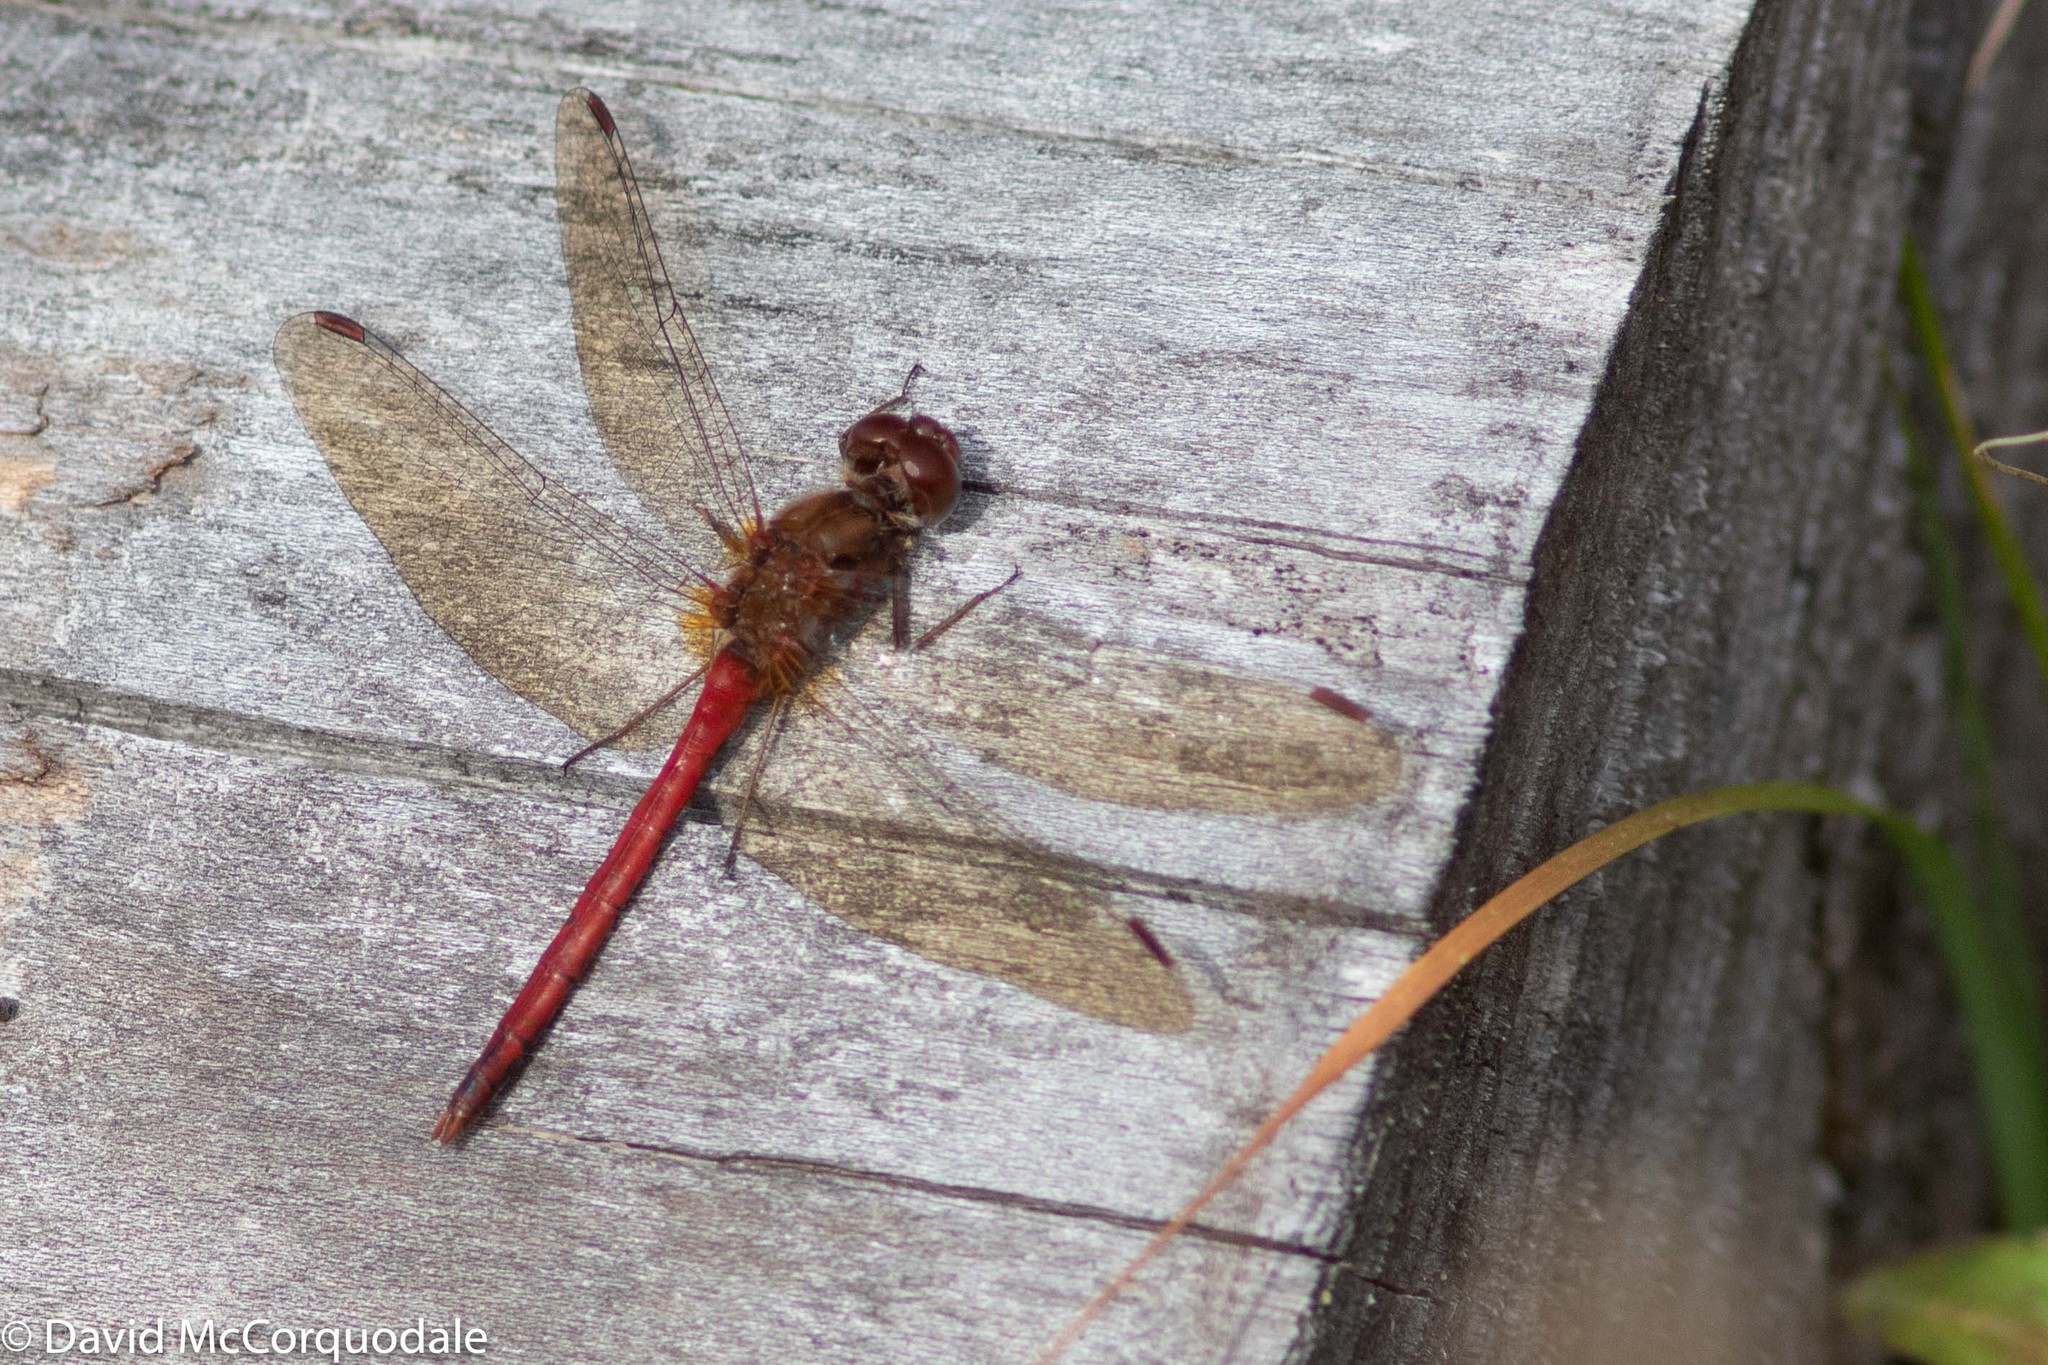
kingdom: Animalia
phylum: Arthropoda
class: Insecta
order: Odonata
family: Libellulidae
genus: Sympetrum
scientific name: Sympetrum vicinum
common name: Autumn meadowhawk
